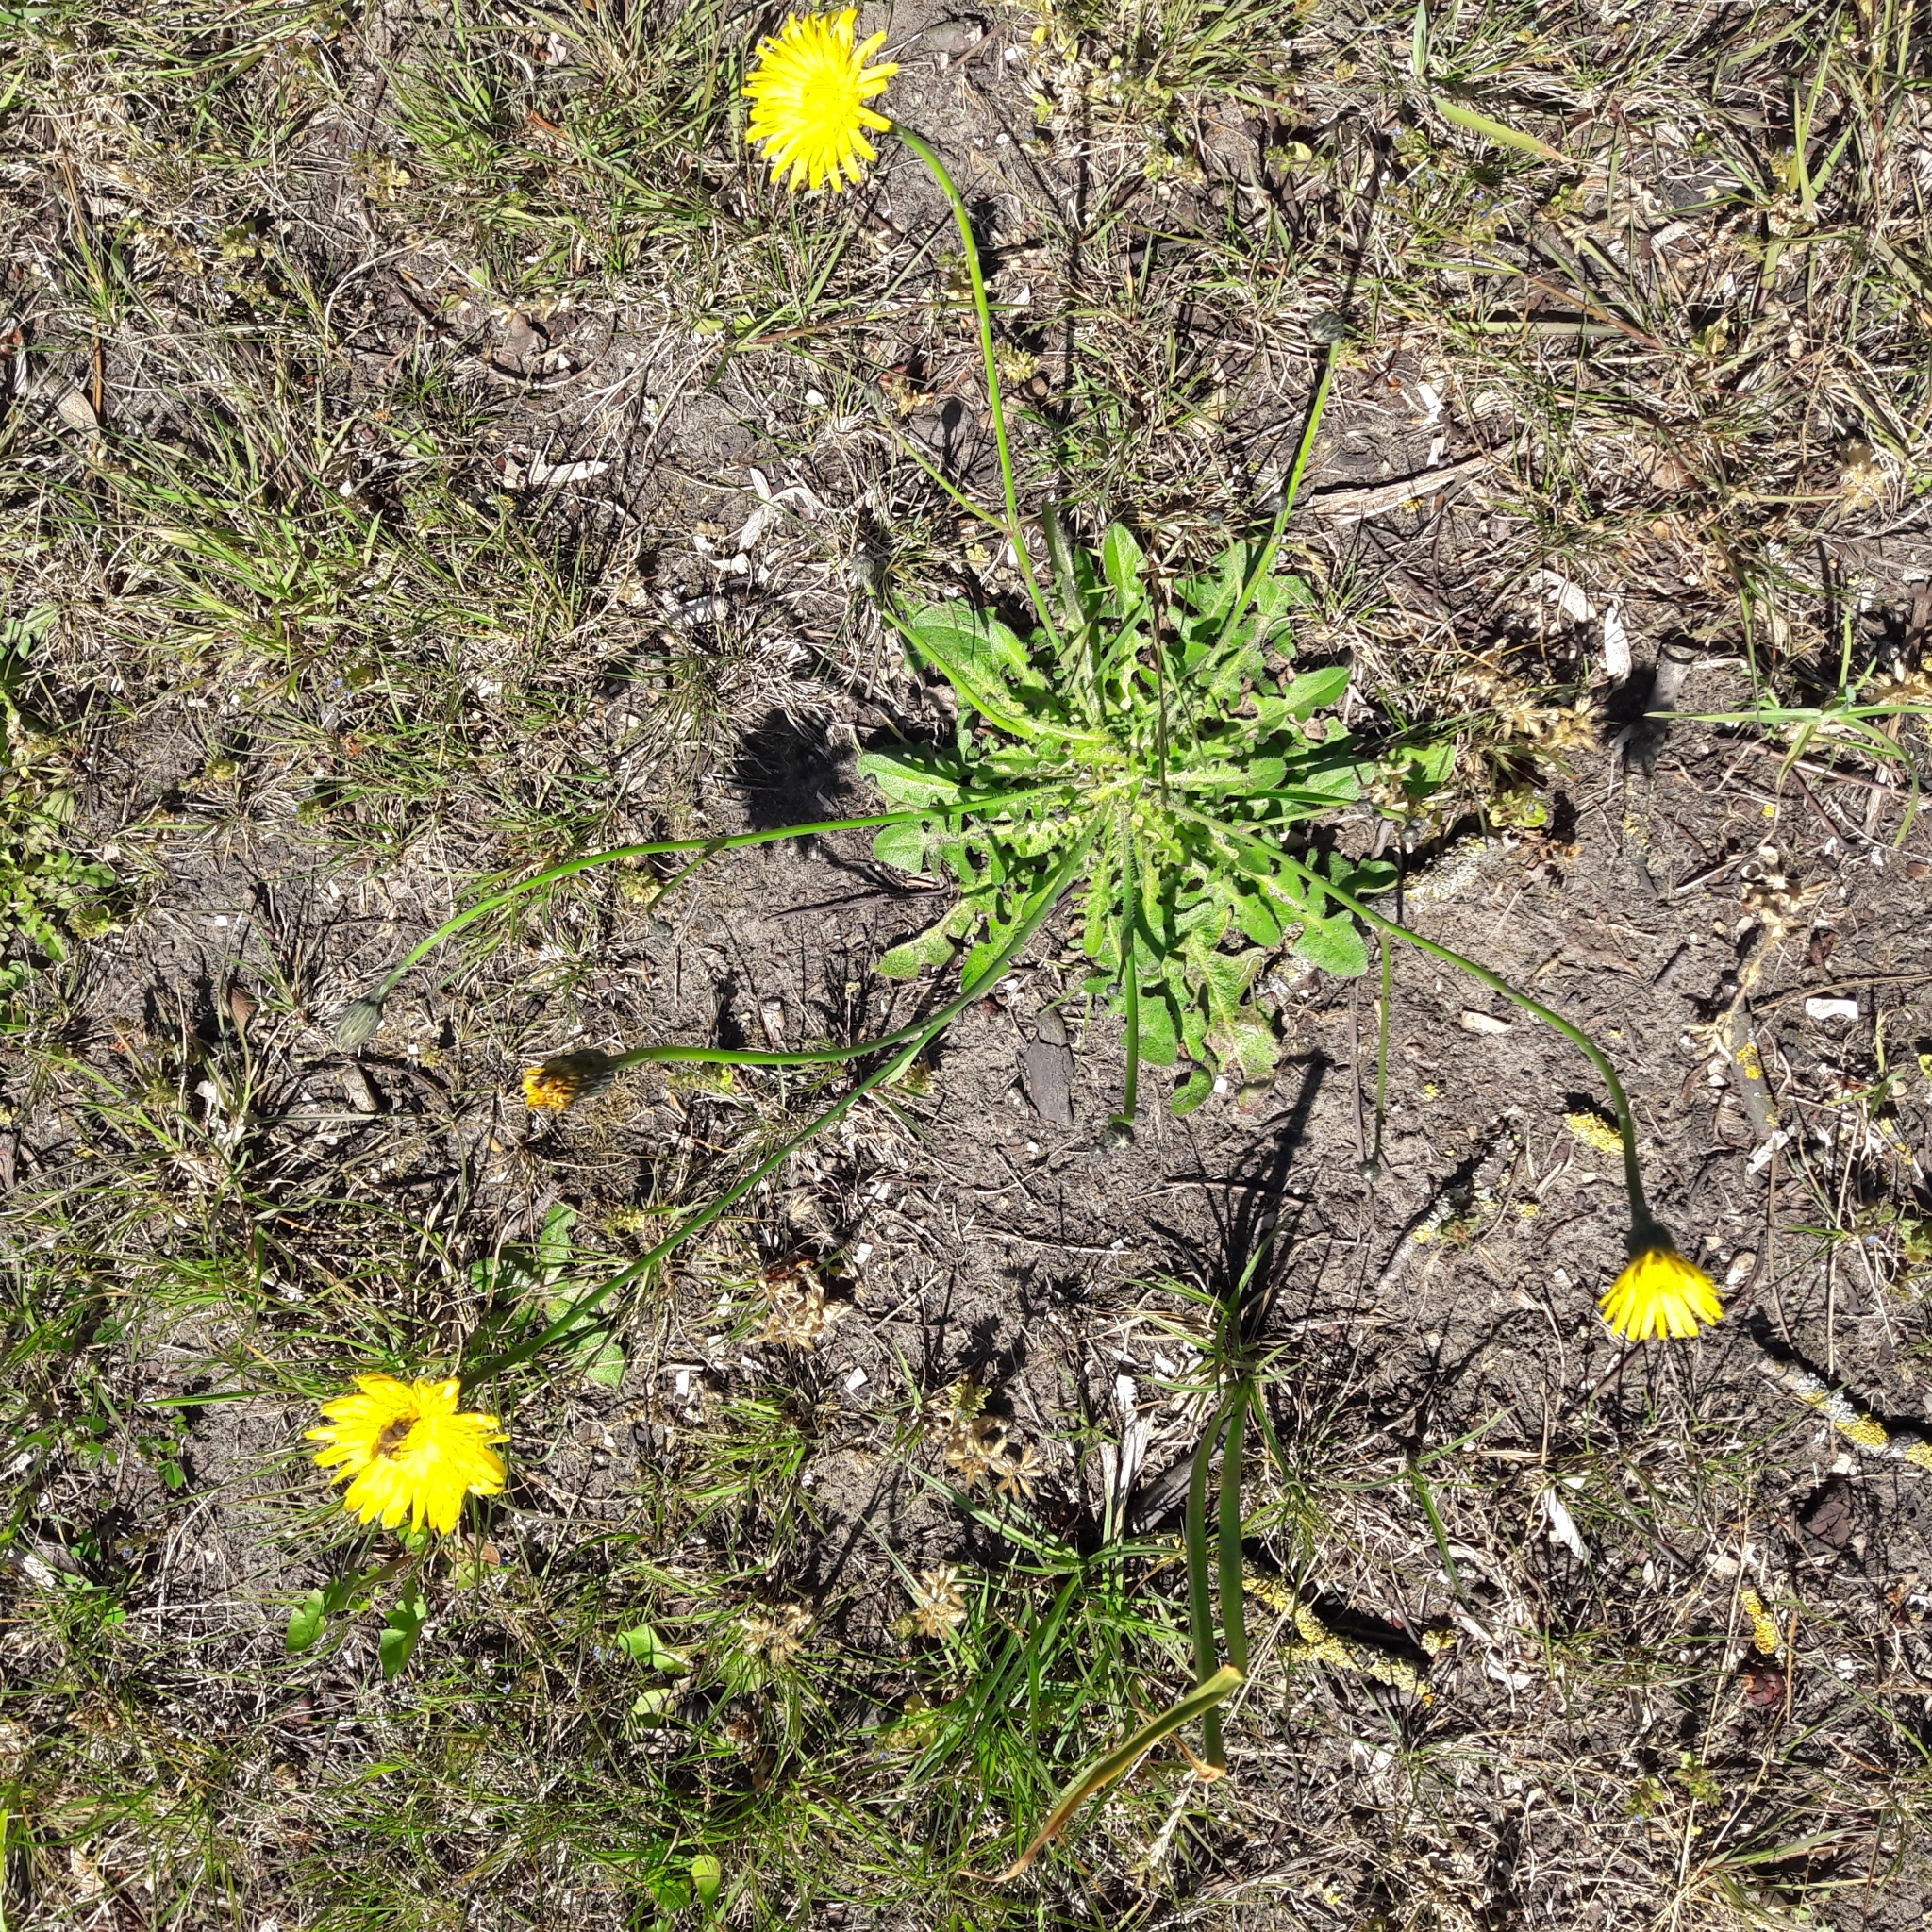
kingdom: Plantae
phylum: Tracheophyta
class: Magnoliopsida
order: Asterales
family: Asteraceae
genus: Hypochaeris
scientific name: Hypochaeris radicata
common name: Flatweed
